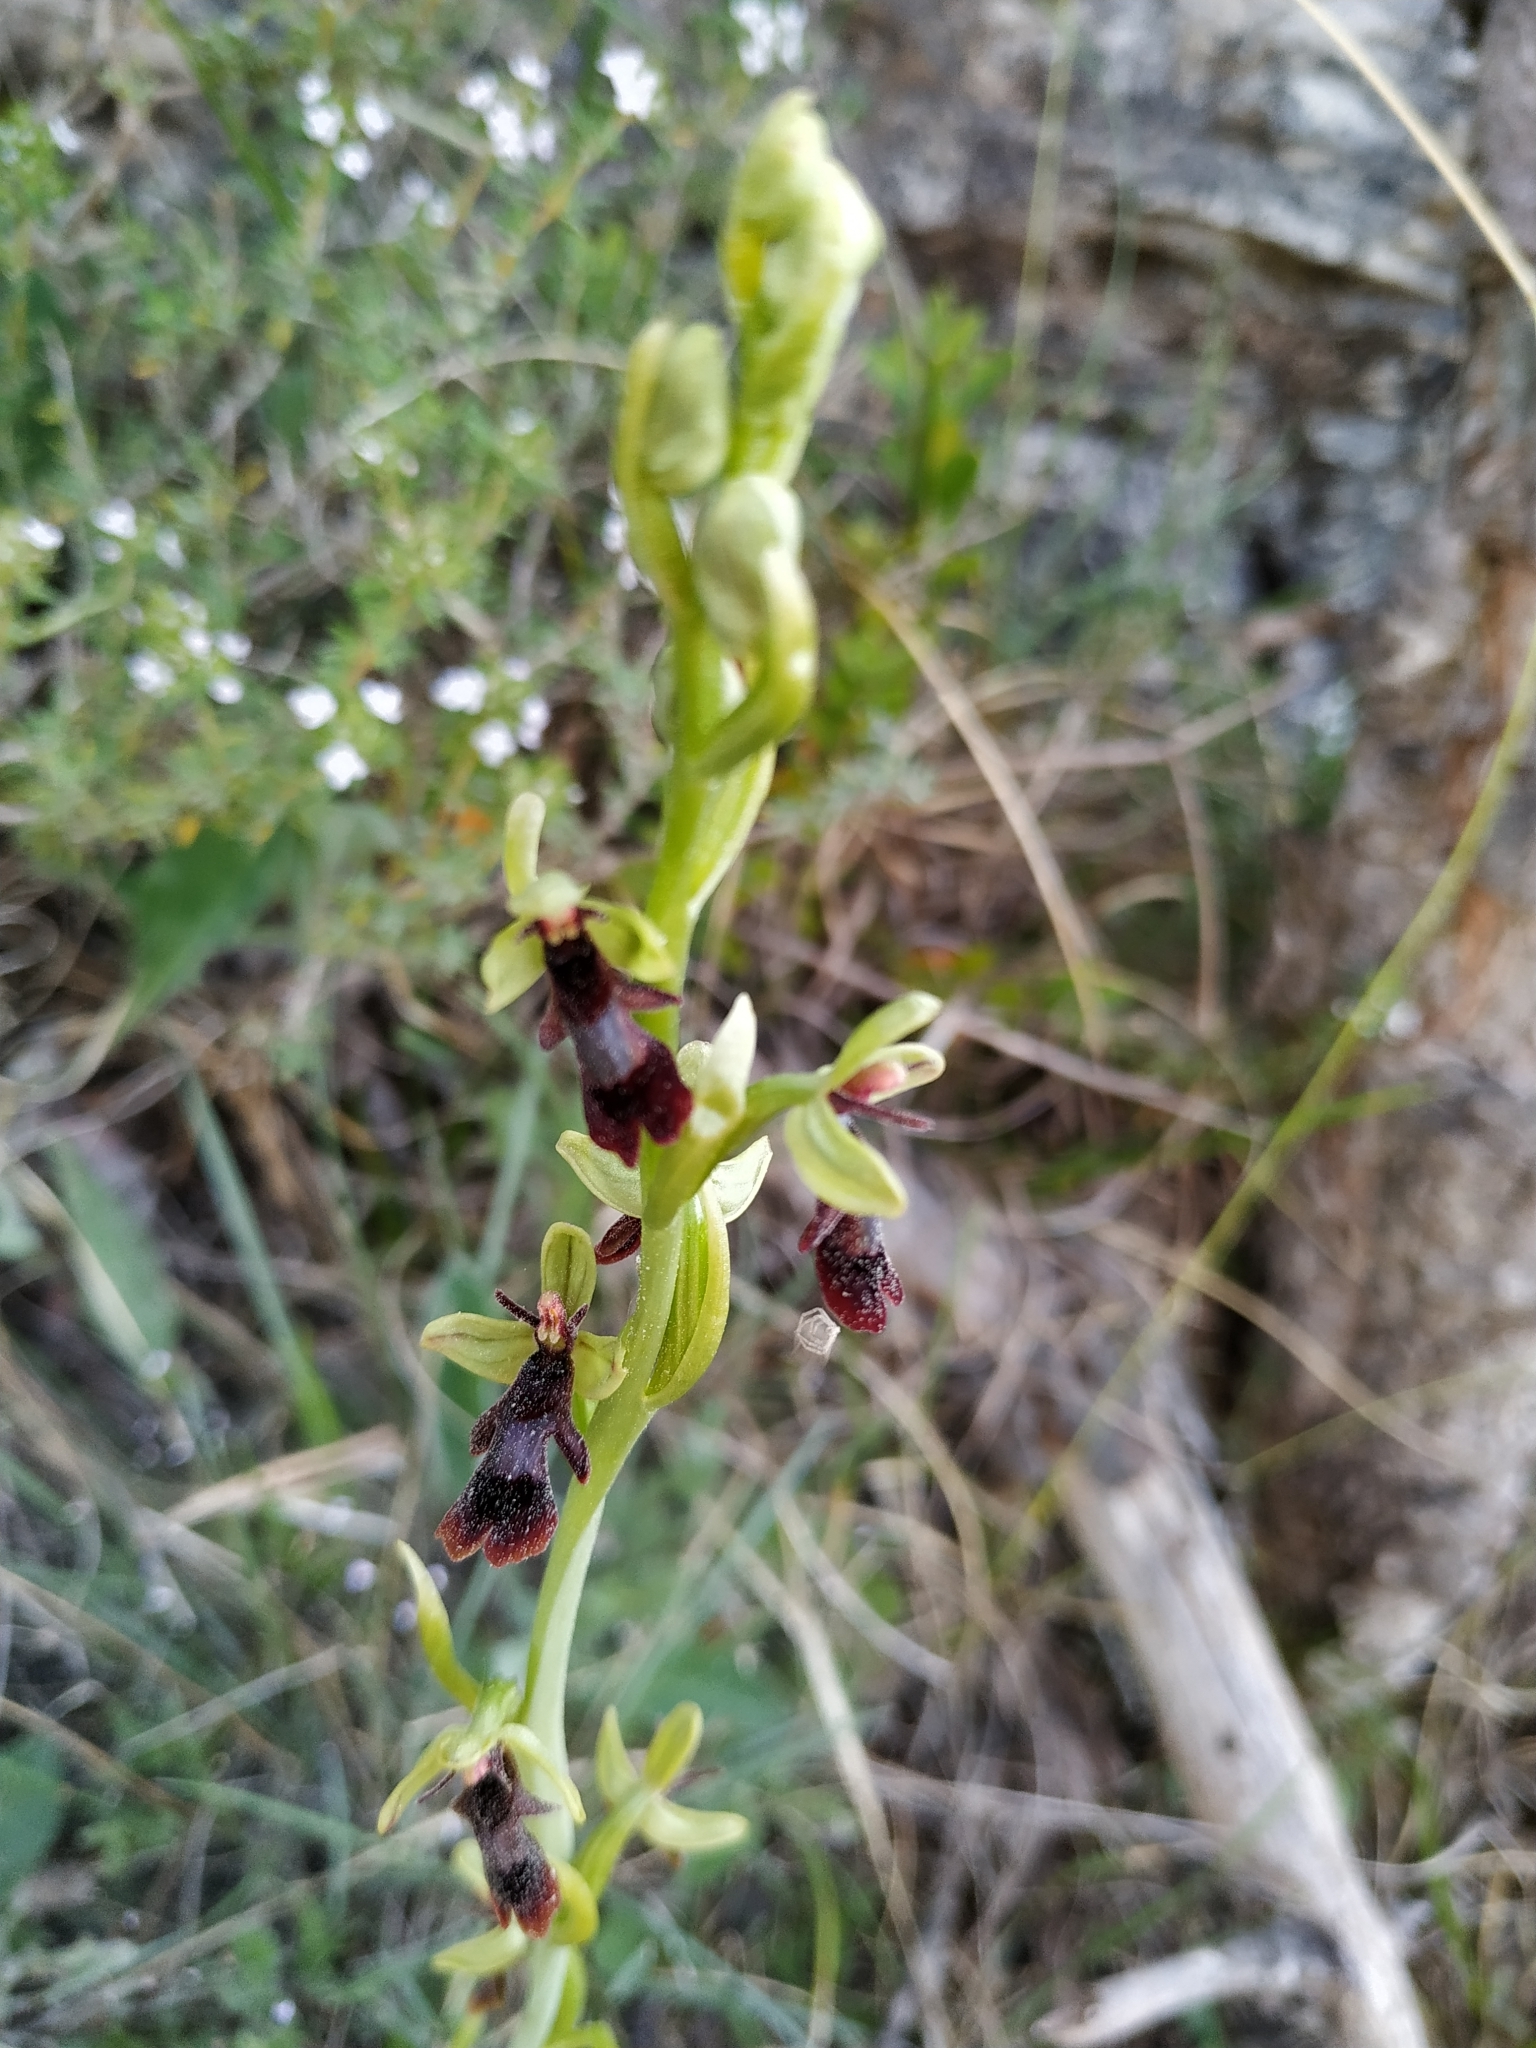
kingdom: Plantae
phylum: Tracheophyta
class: Liliopsida
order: Asparagales
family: Orchidaceae
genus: Ophrys
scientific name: Ophrys insectifera
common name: Fly orchid
